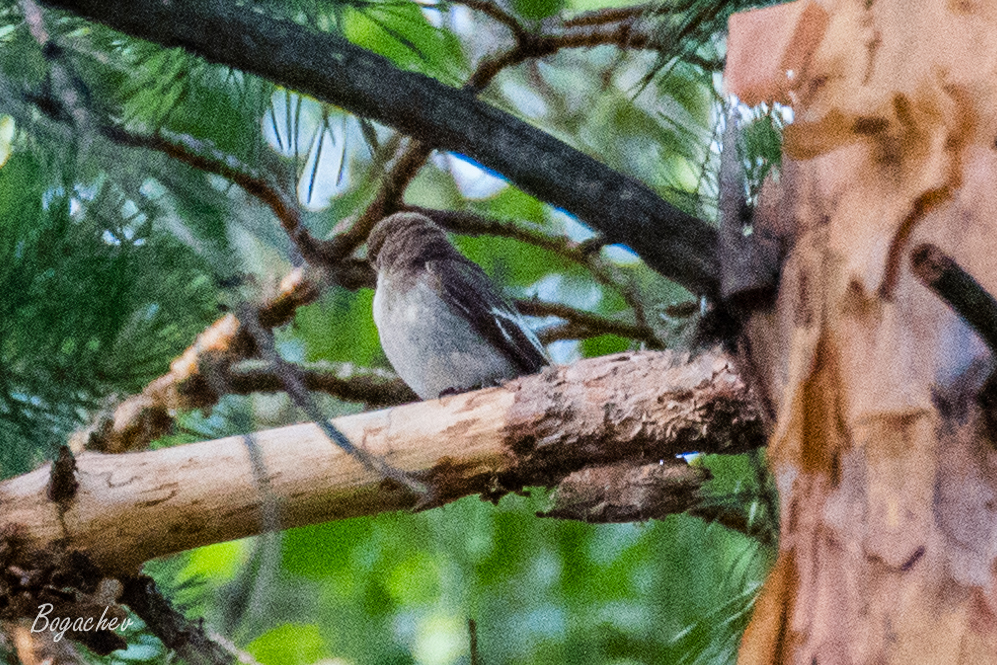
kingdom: Animalia
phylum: Chordata
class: Aves
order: Passeriformes
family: Muscicapidae
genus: Ficedula
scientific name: Ficedula hypoleuca
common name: European pied flycatcher
